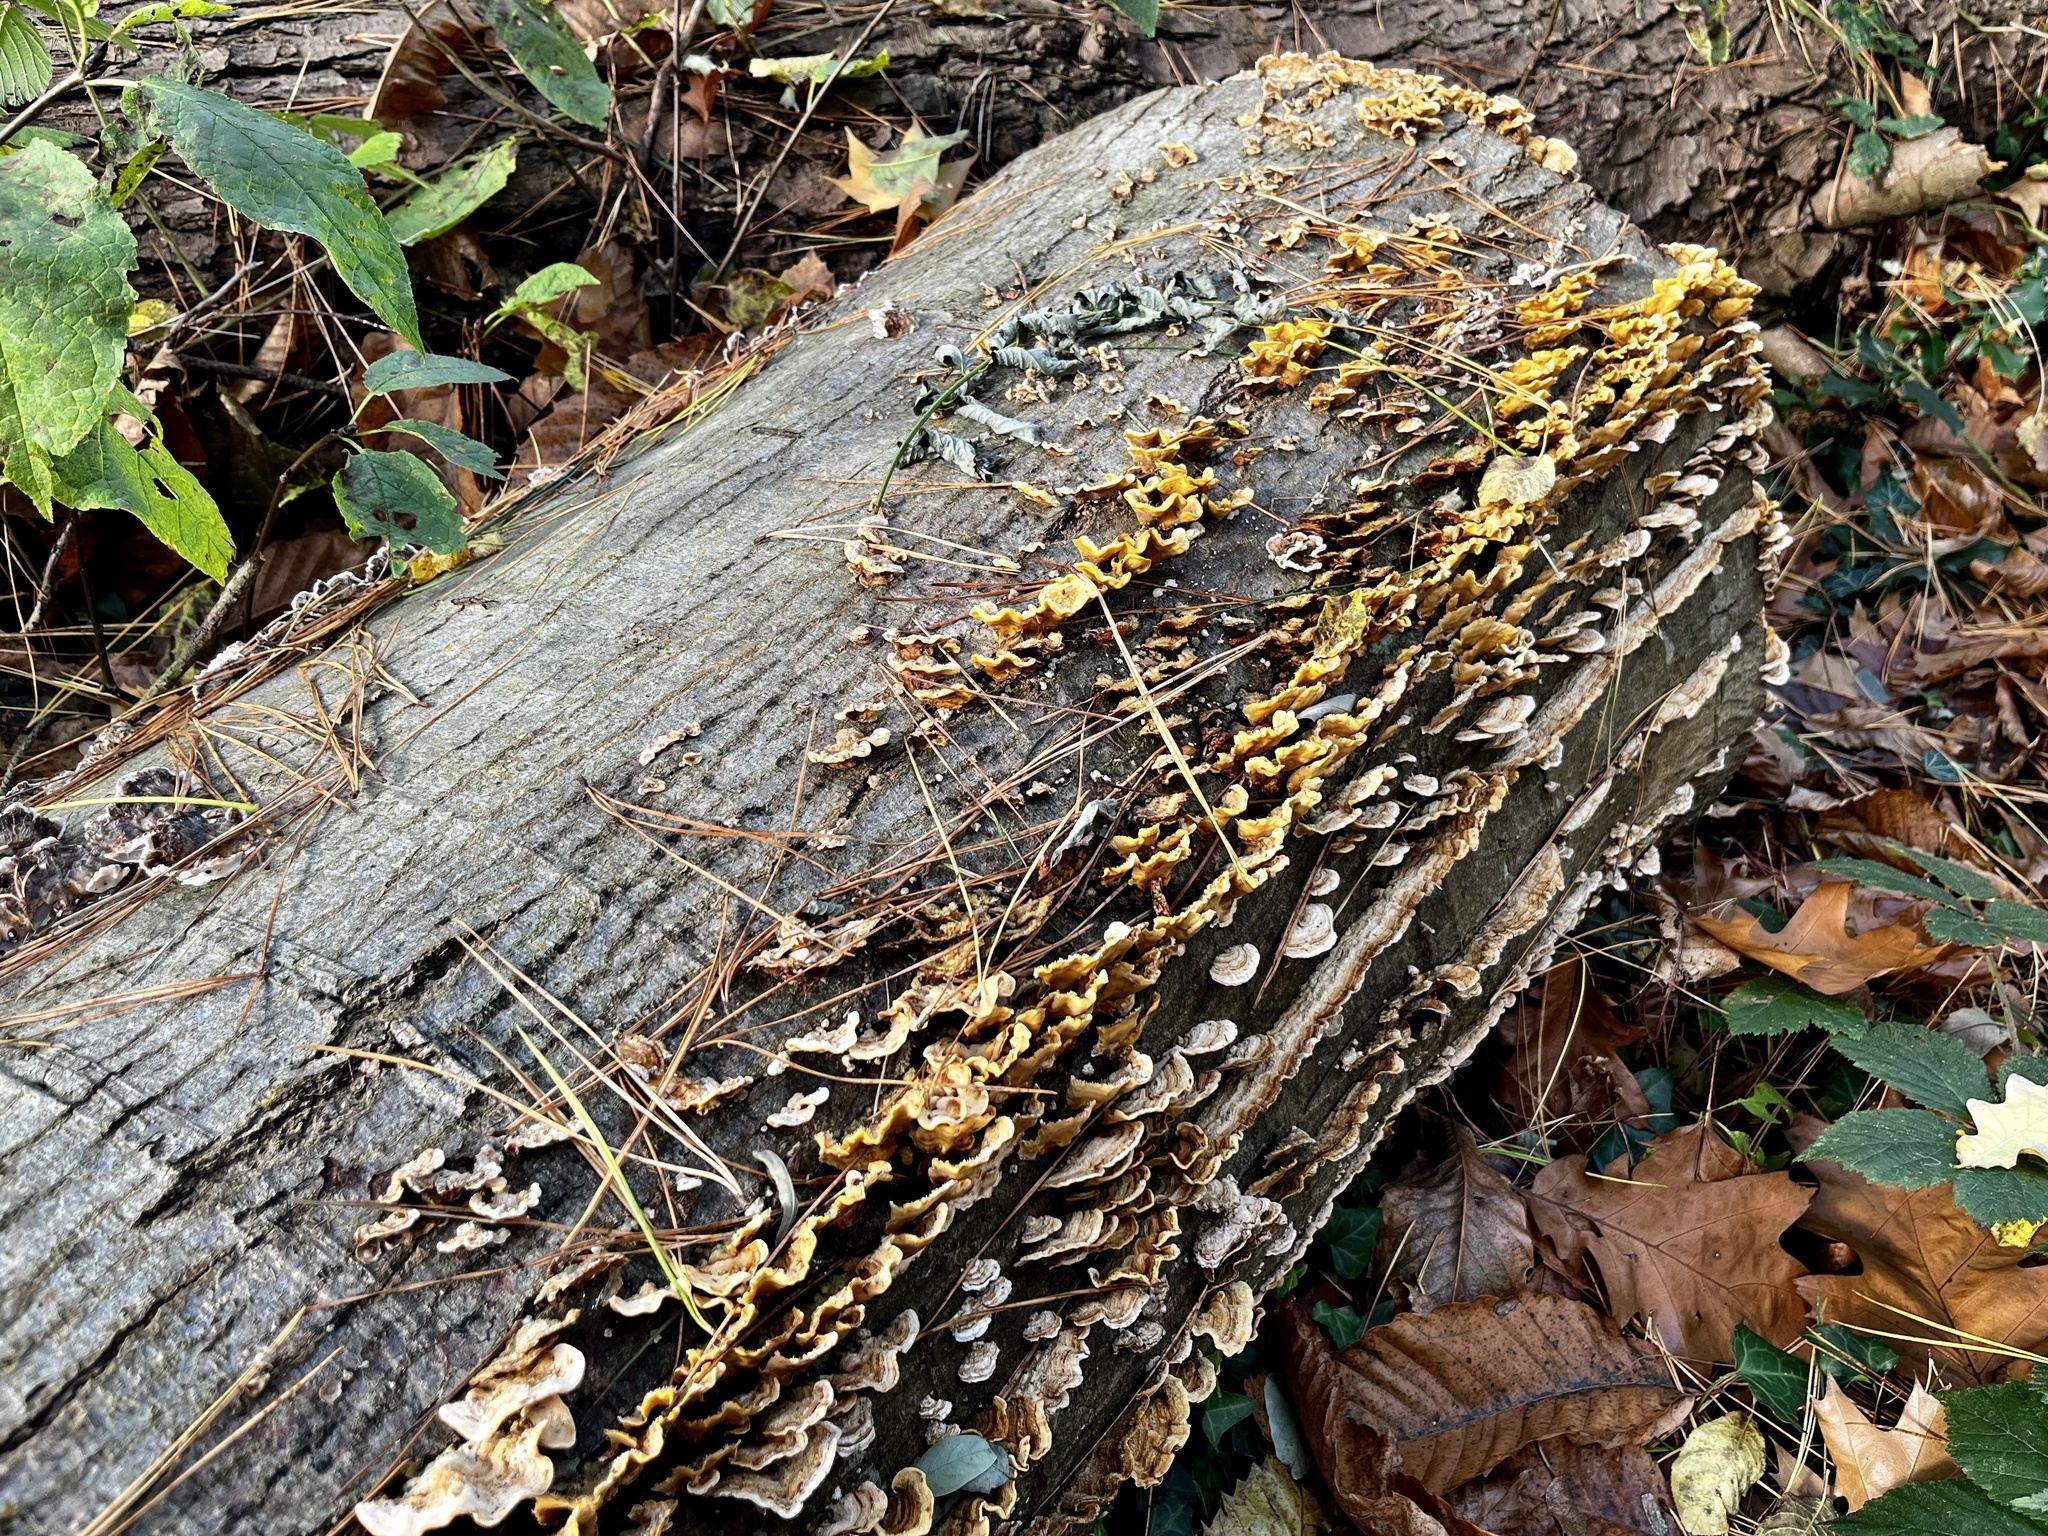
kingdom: Fungi
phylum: Basidiomycota
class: Agaricomycetes
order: Russulales
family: Stereaceae
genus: Stereum
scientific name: Stereum hirsutum
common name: Hairy curtain crust
